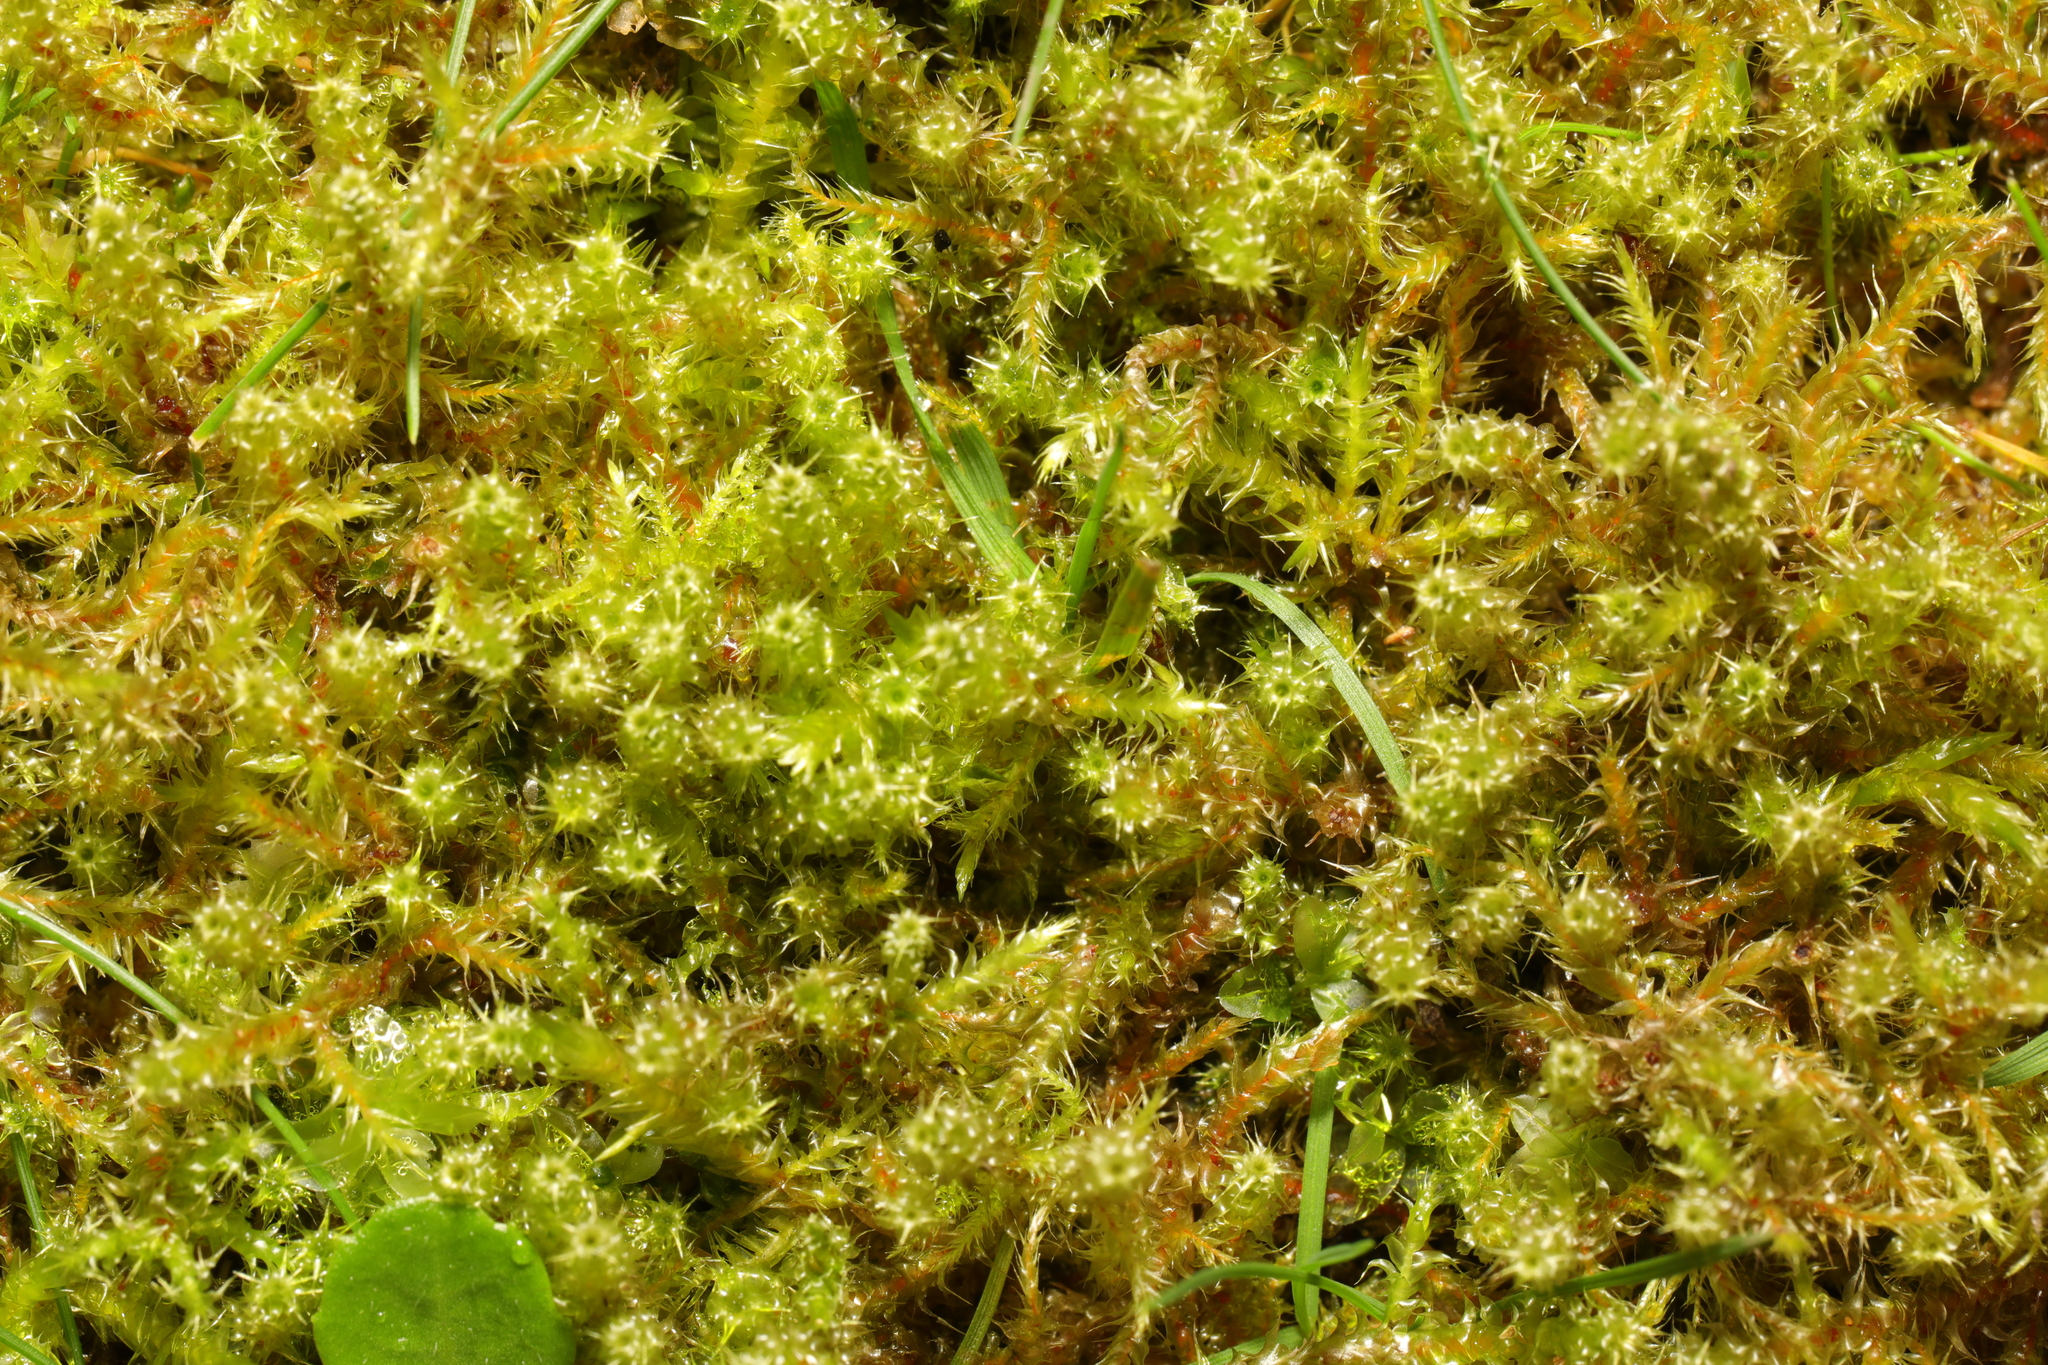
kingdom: Plantae
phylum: Bryophyta
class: Bryopsida
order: Hypnales
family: Hylocomiaceae
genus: Rhytidiadelphus
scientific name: Rhytidiadelphus squarrosus
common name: Springy turf-moss
